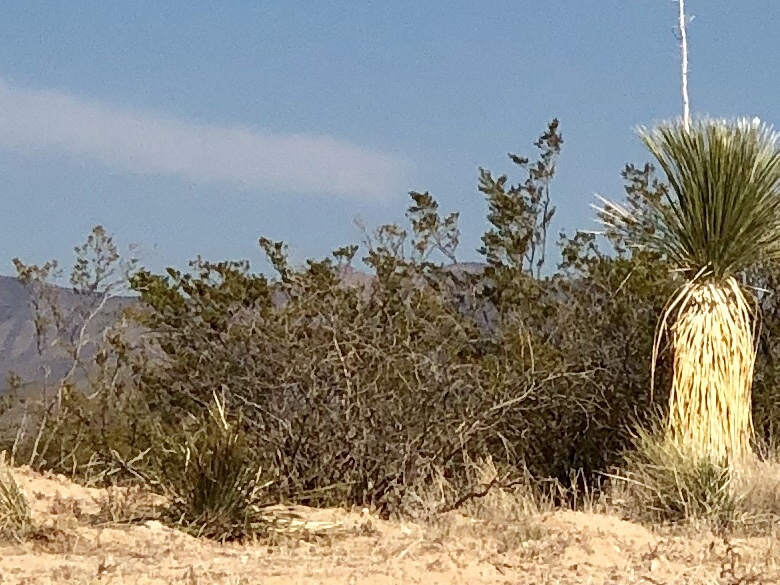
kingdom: Plantae
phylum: Tracheophyta
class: Magnoliopsida
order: Zygophyllales
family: Zygophyllaceae
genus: Larrea
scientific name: Larrea tridentata
